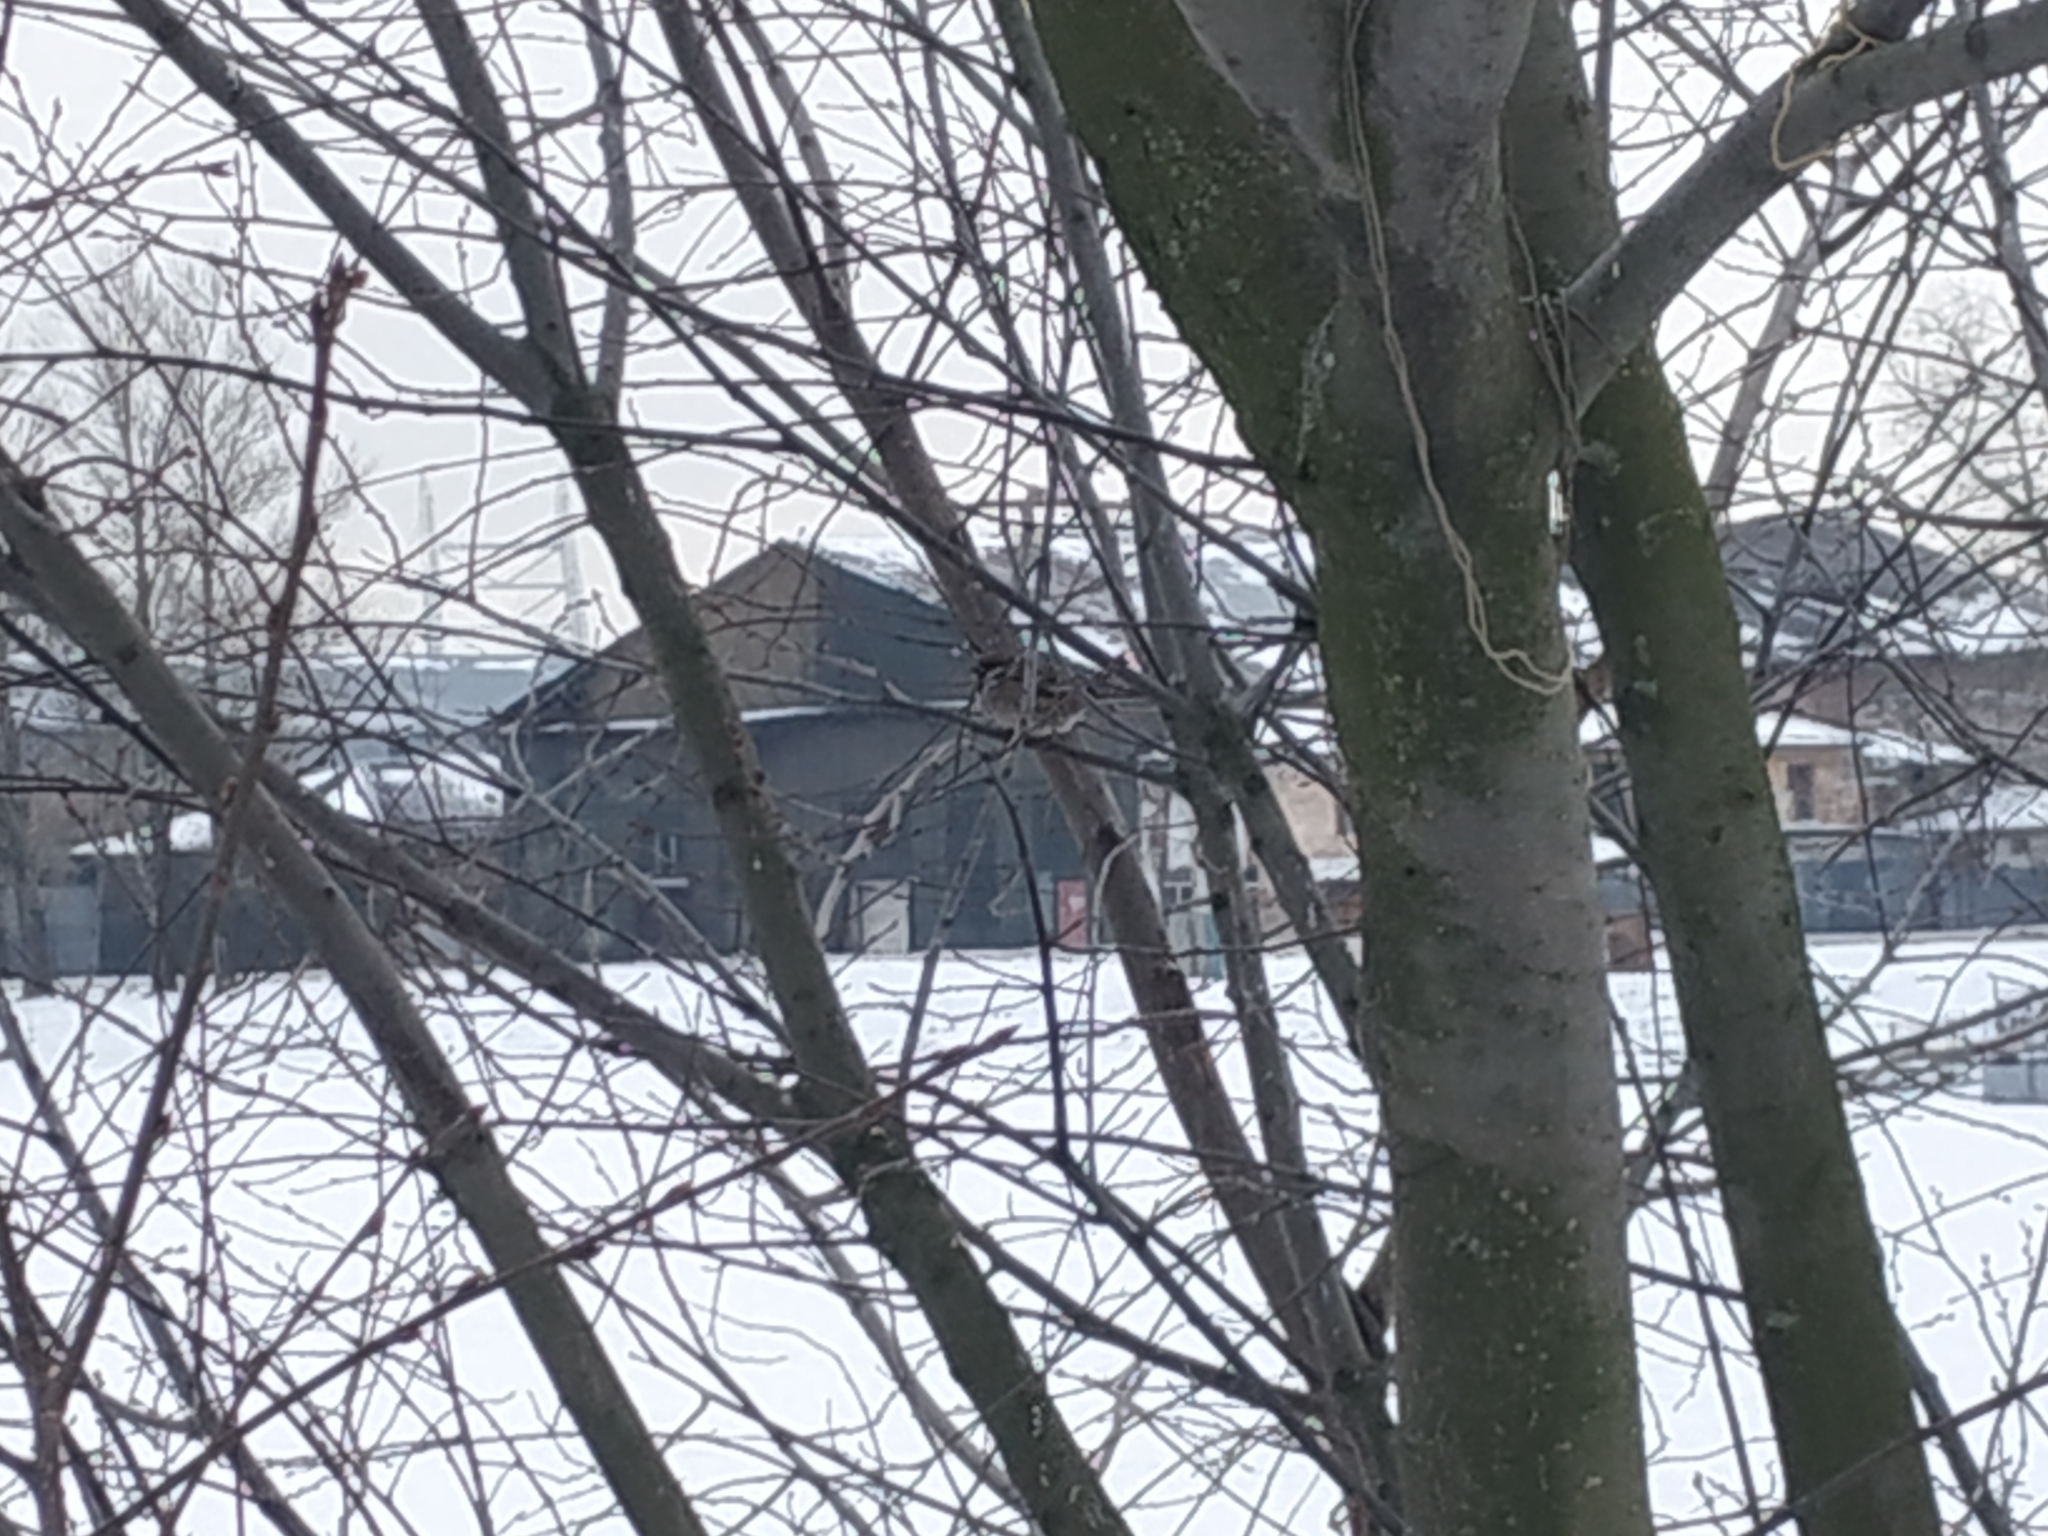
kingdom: Animalia
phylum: Chordata
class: Aves
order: Passeriformes
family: Passeridae
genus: Passer
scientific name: Passer montanus
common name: Eurasian tree sparrow
